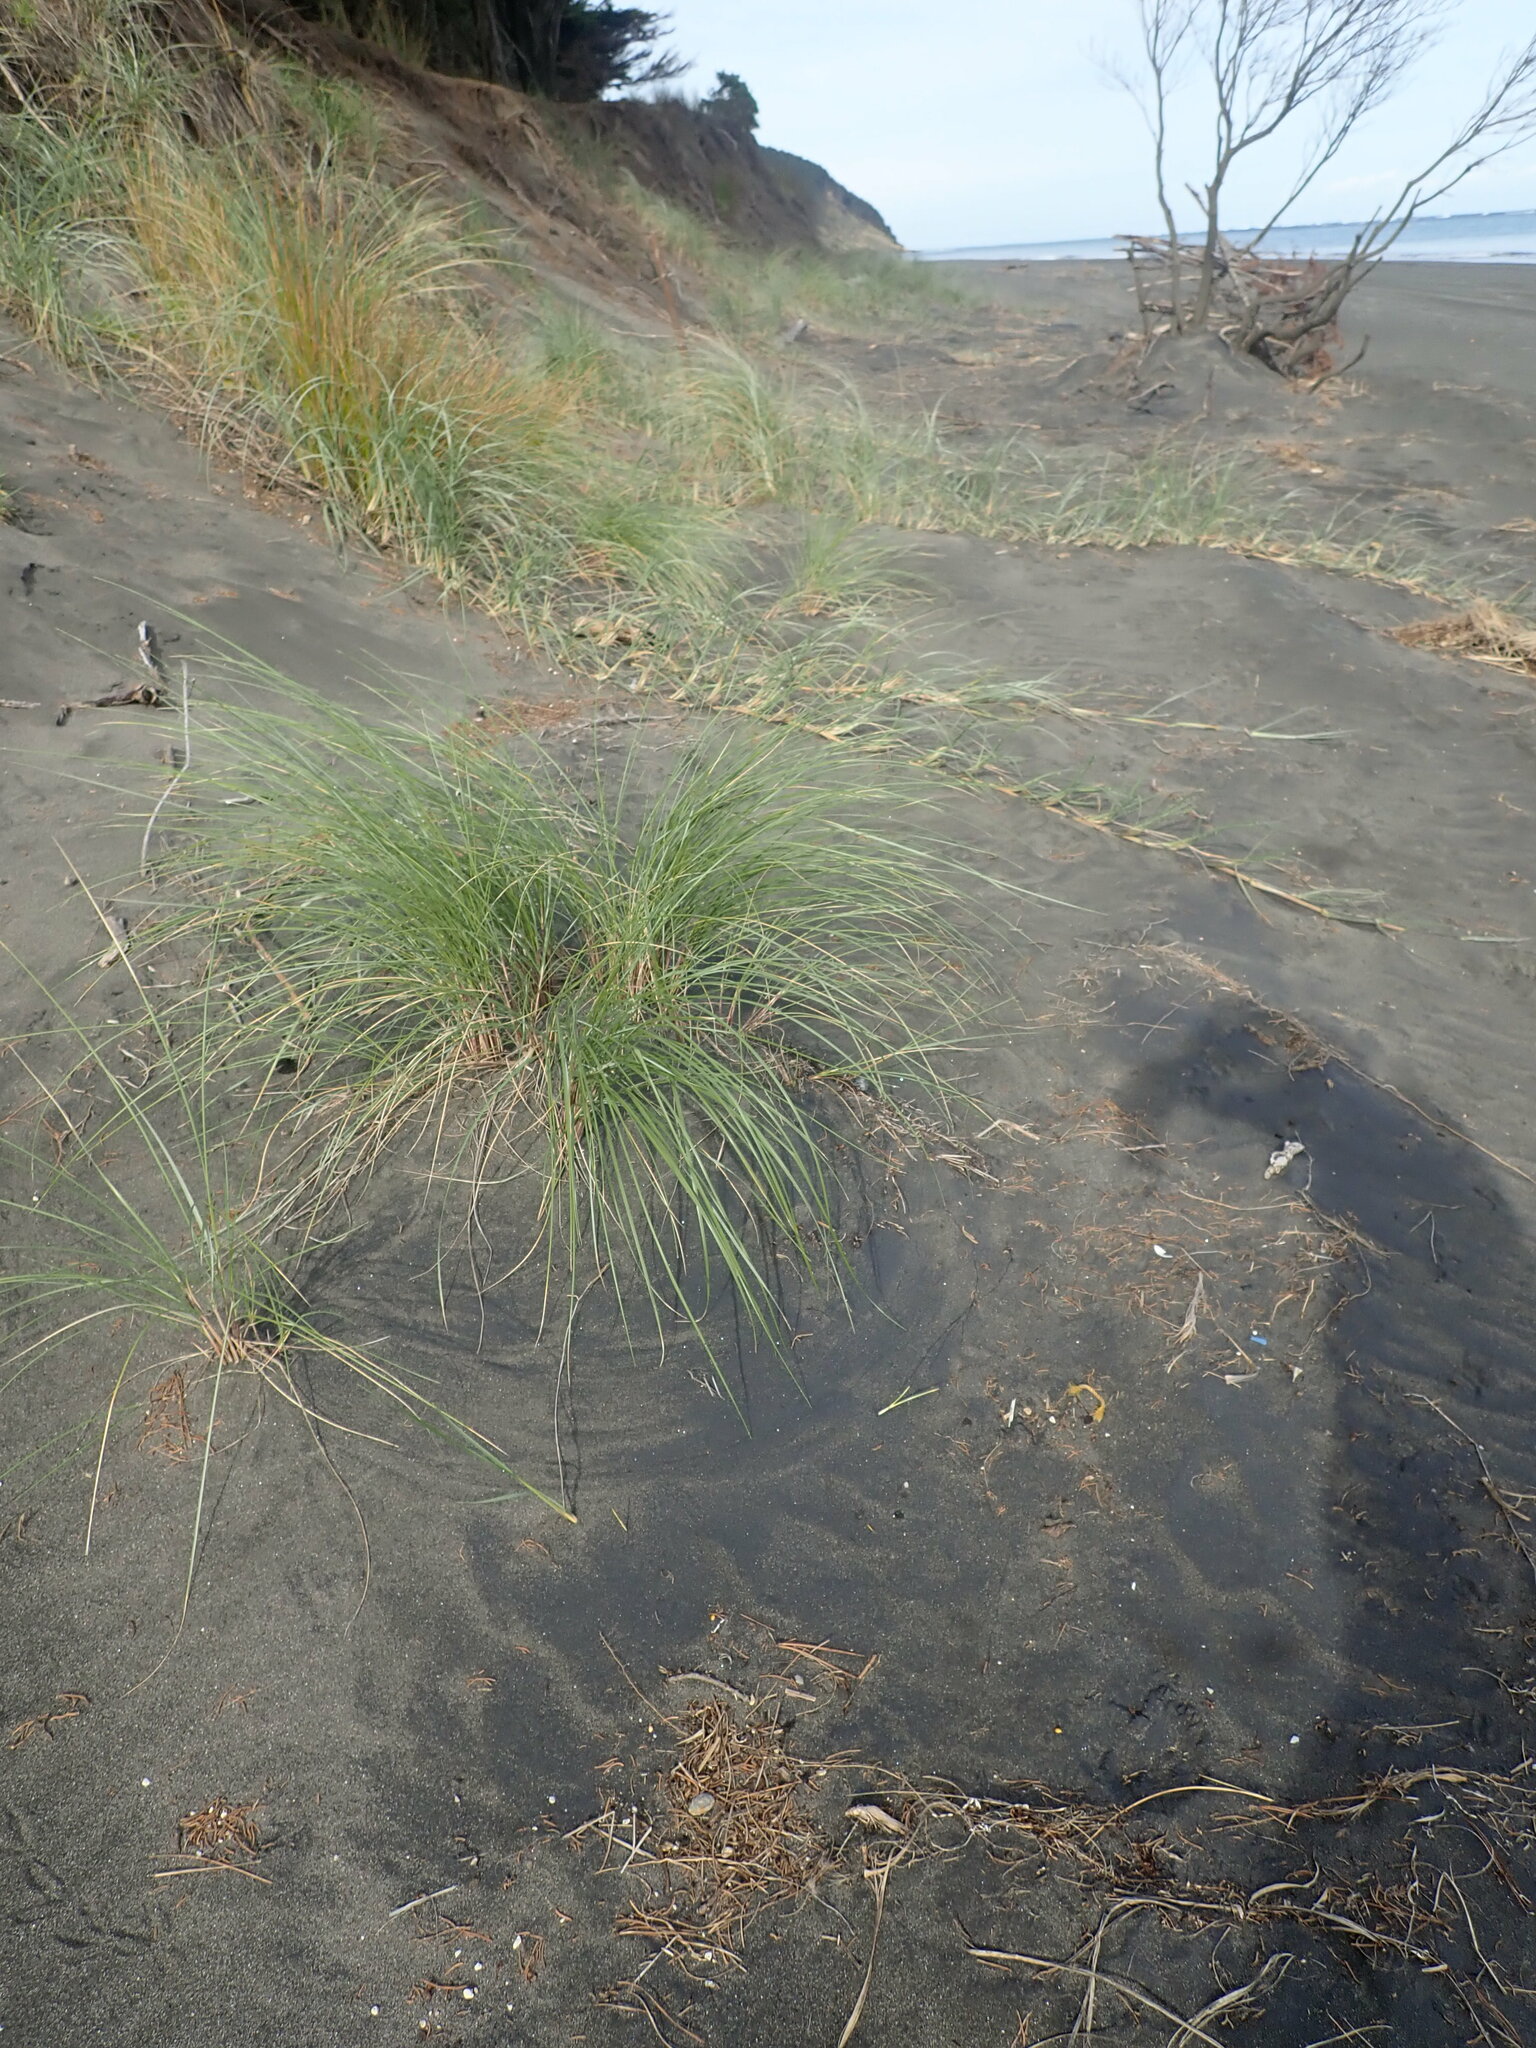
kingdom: Plantae
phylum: Tracheophyta
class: Liliopsida
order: Poales
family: Poaceae
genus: Calamagrostis
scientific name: Calamagrostis arenaria
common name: European beachgrass
